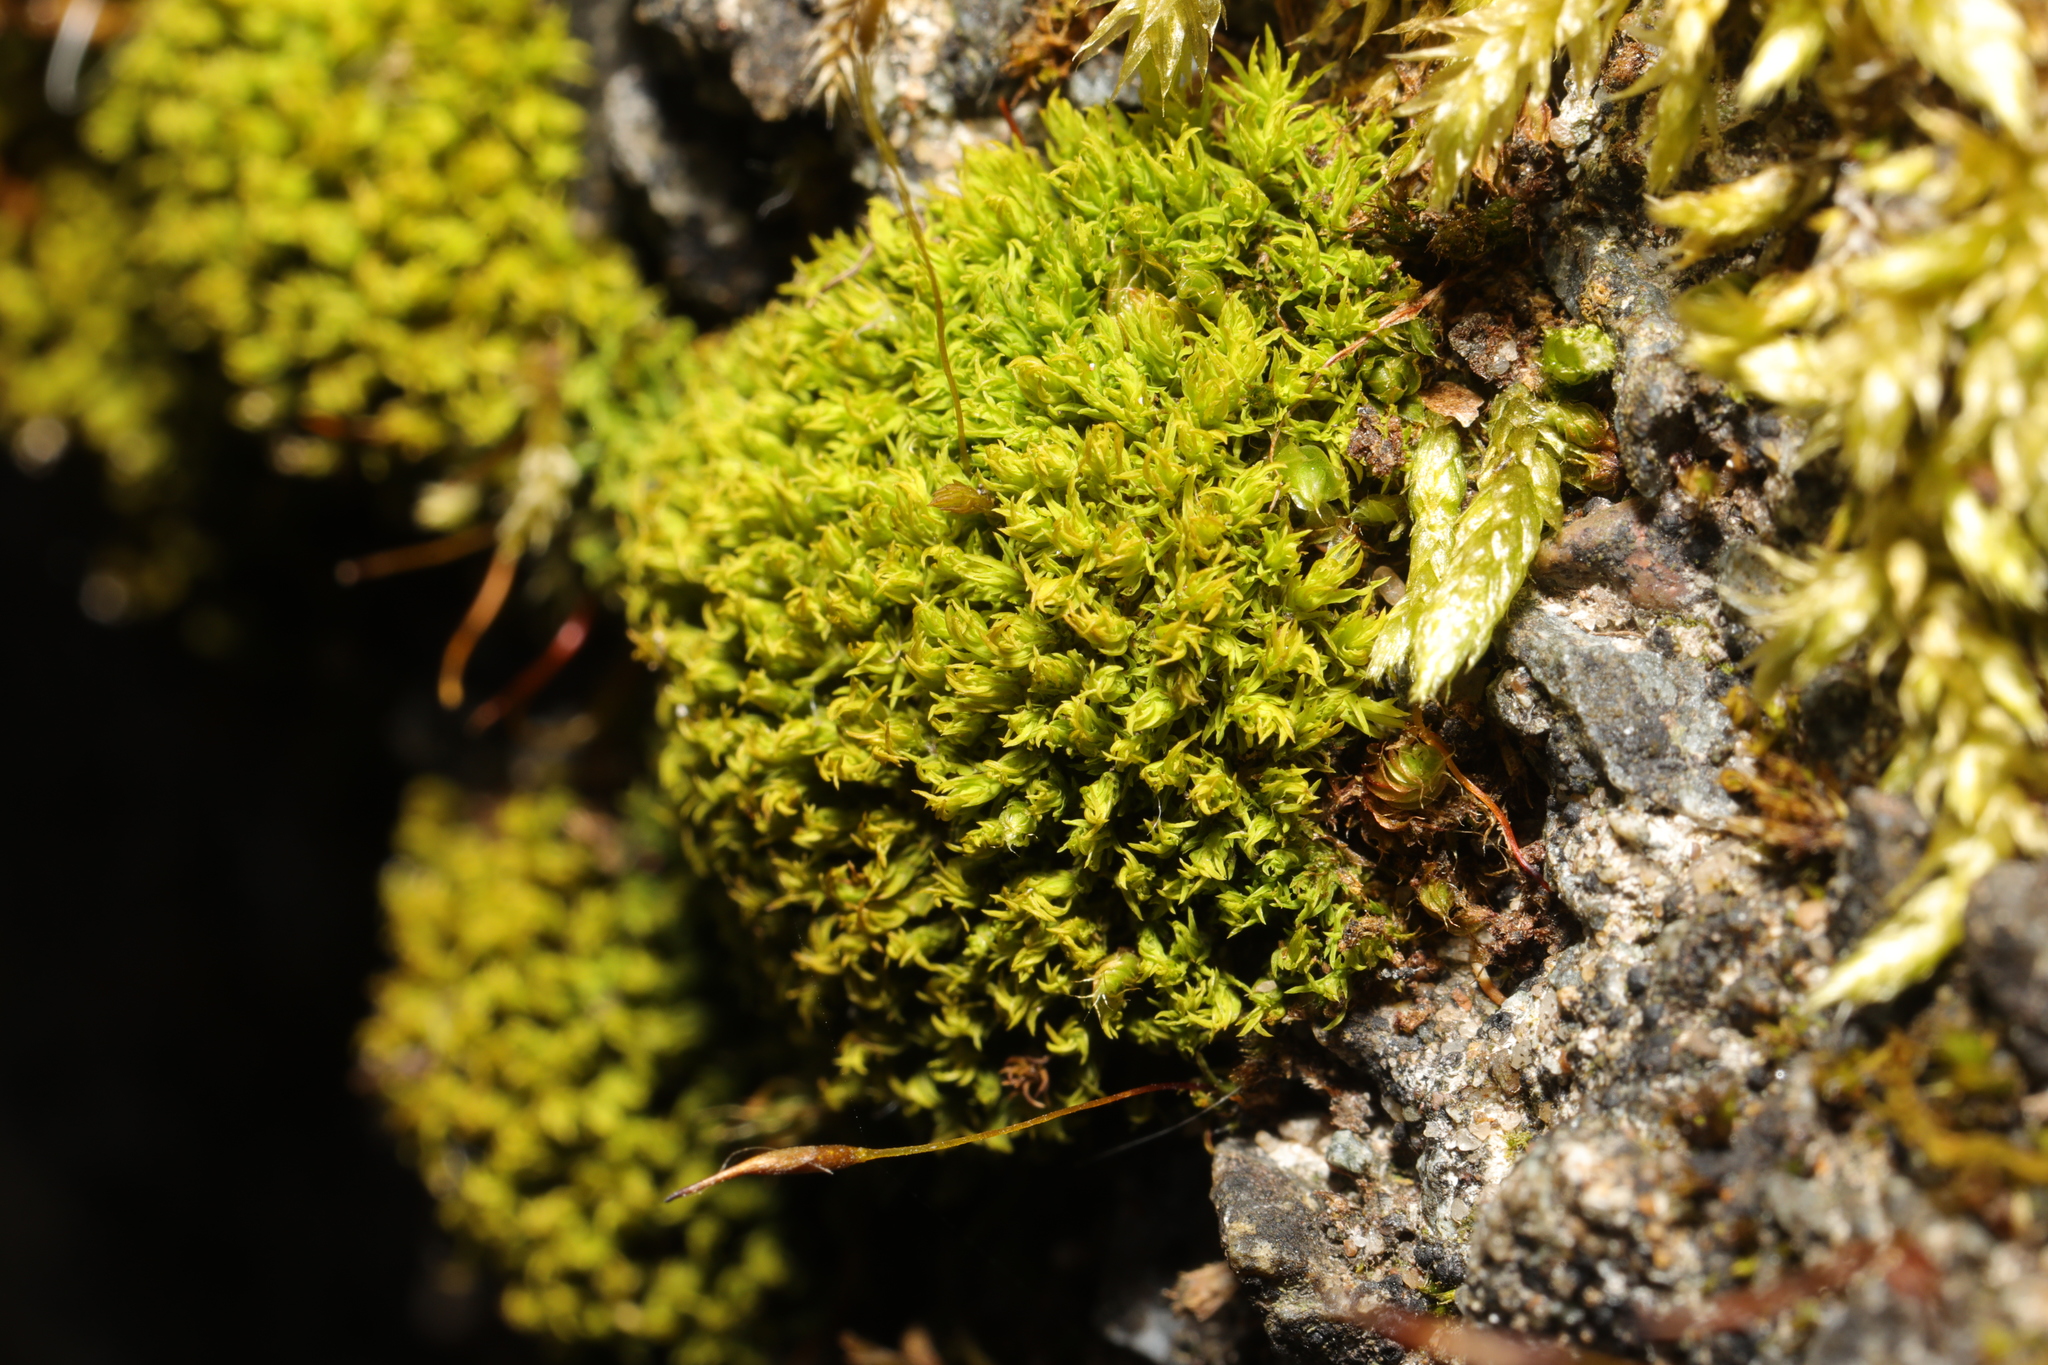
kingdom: Plantae
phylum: Bryophyta
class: Bryopsida
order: Pottiales
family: Pottiaceae
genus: Pseudocrossidium
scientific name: Pseudocrossidium hornschuchianum
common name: Hornschuch's beard-moss
